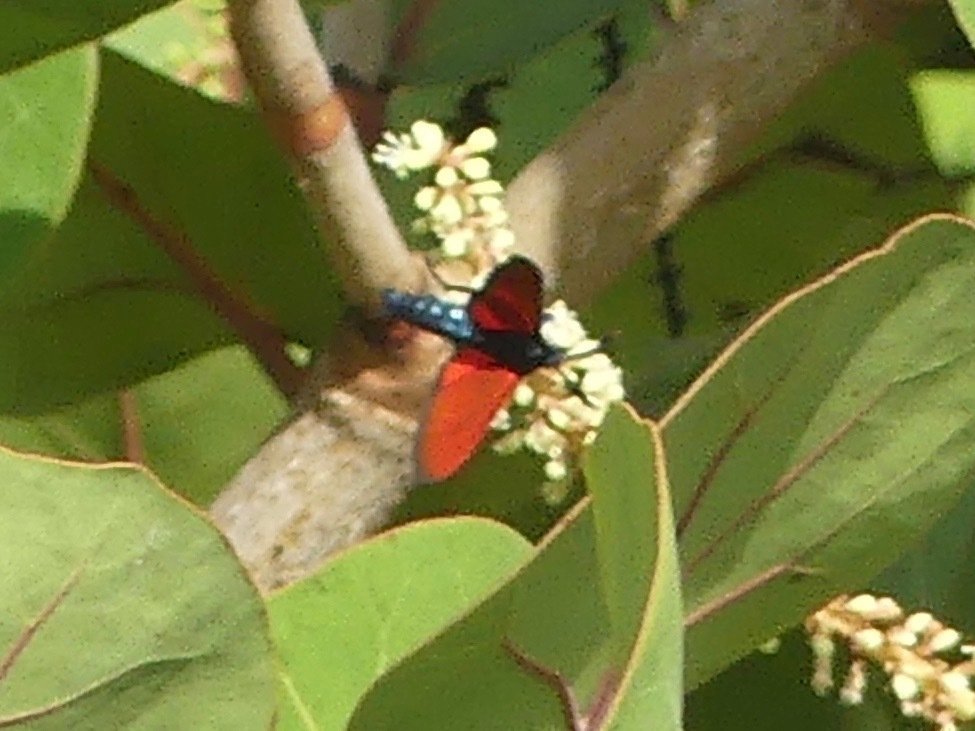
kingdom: Animalia
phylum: Arthropoda
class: Insecta
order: Lepidoptera
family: Erebidae
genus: Empyreuma
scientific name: Empyreuma pugione
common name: Spotted oleander caterpillar moth
